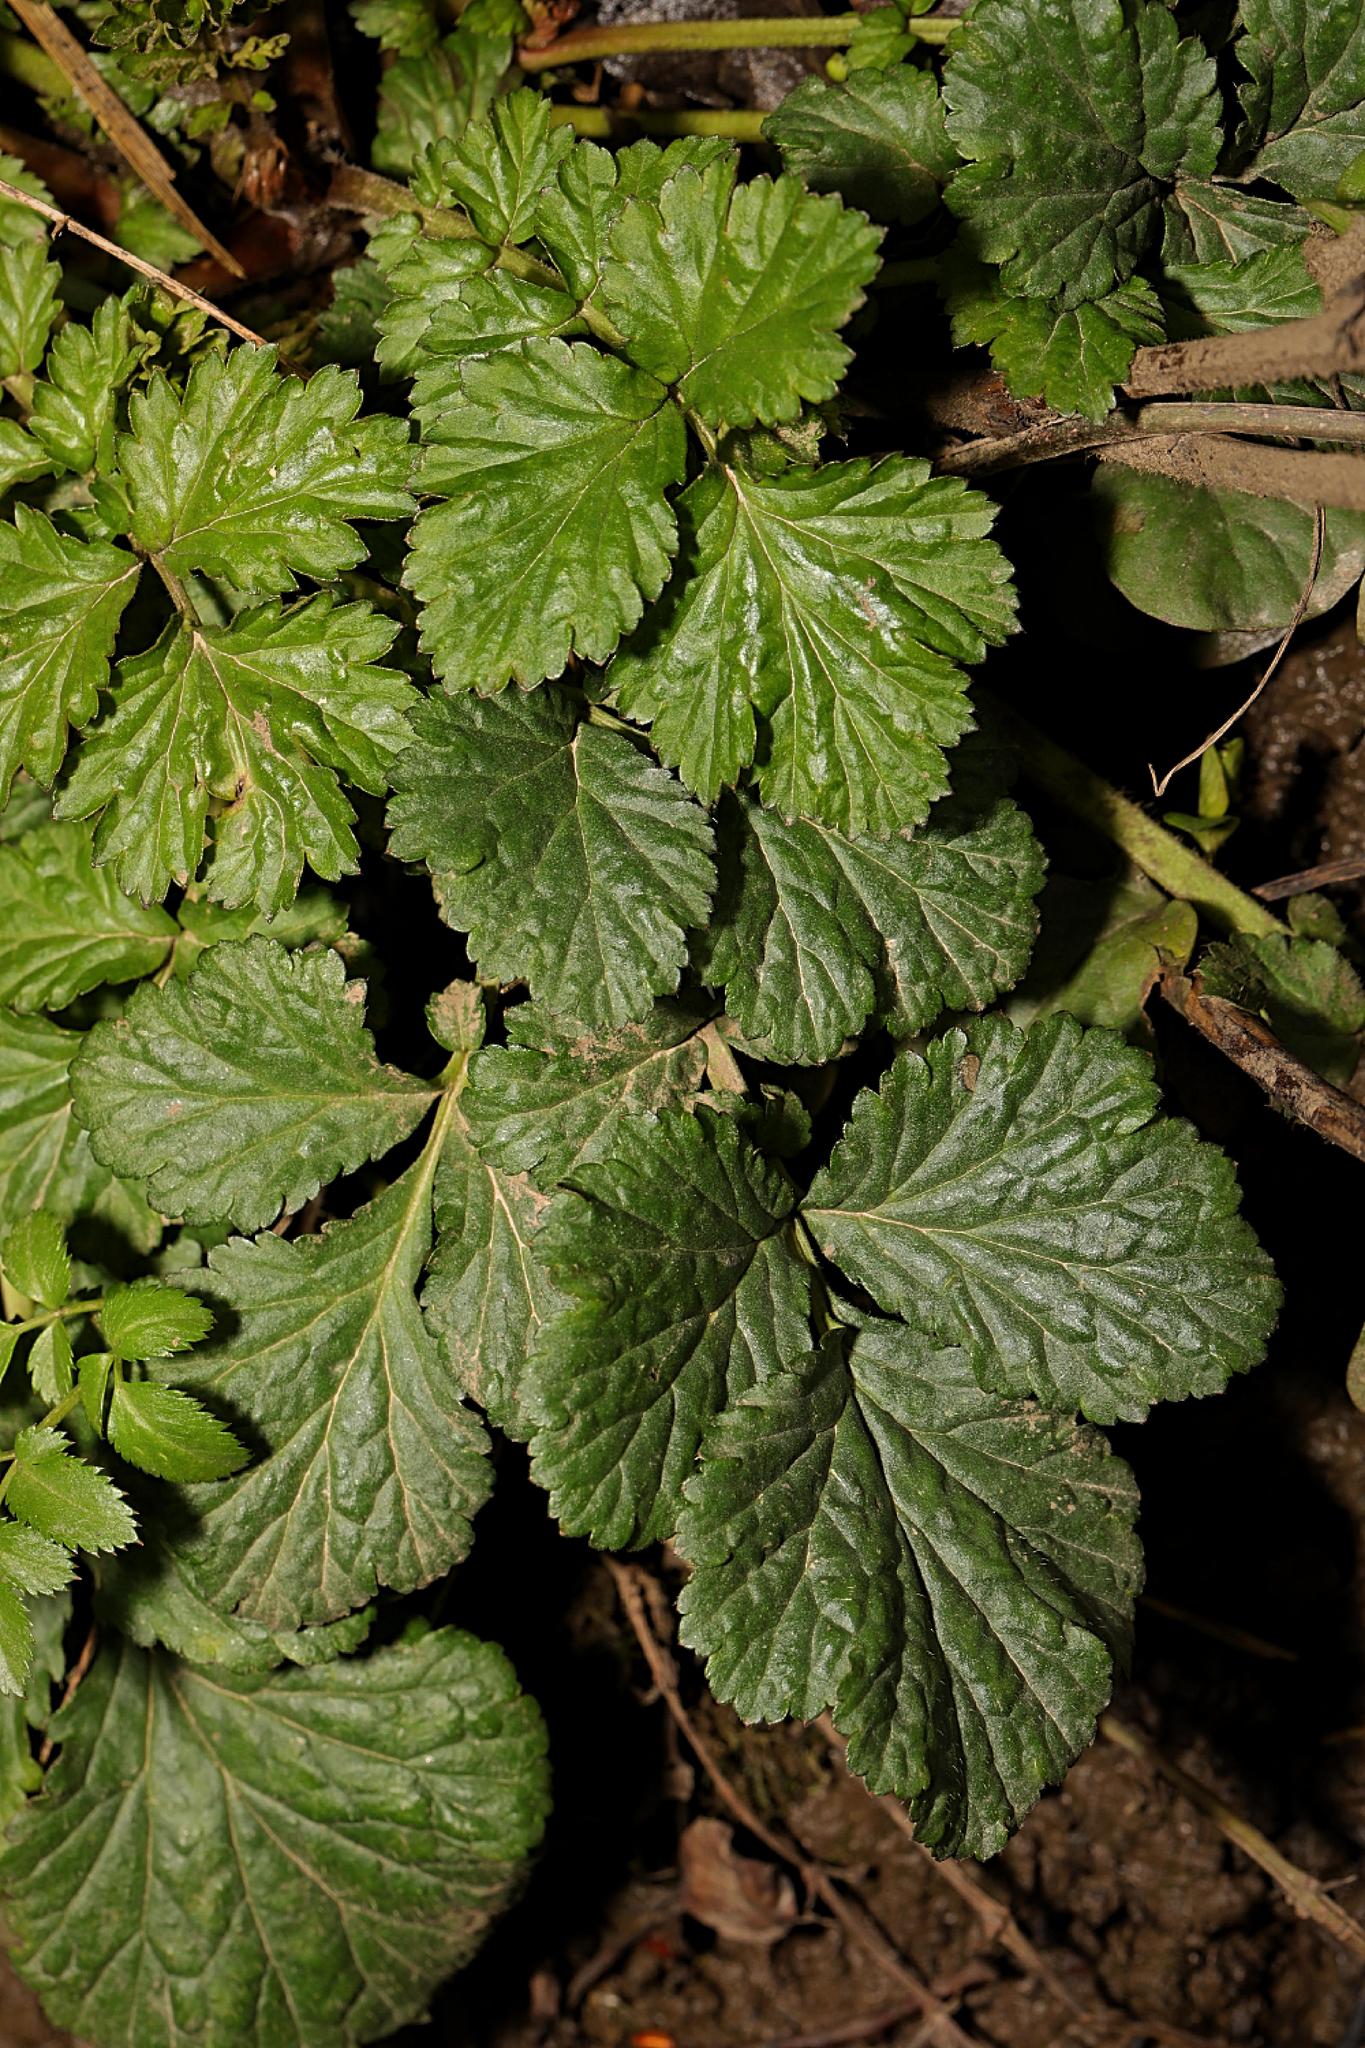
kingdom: Plantae
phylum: Tracheophyta
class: Magnoliopsida
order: Rosales
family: Rosaceae
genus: Geum
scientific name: Geum urbanum
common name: Wood avens
